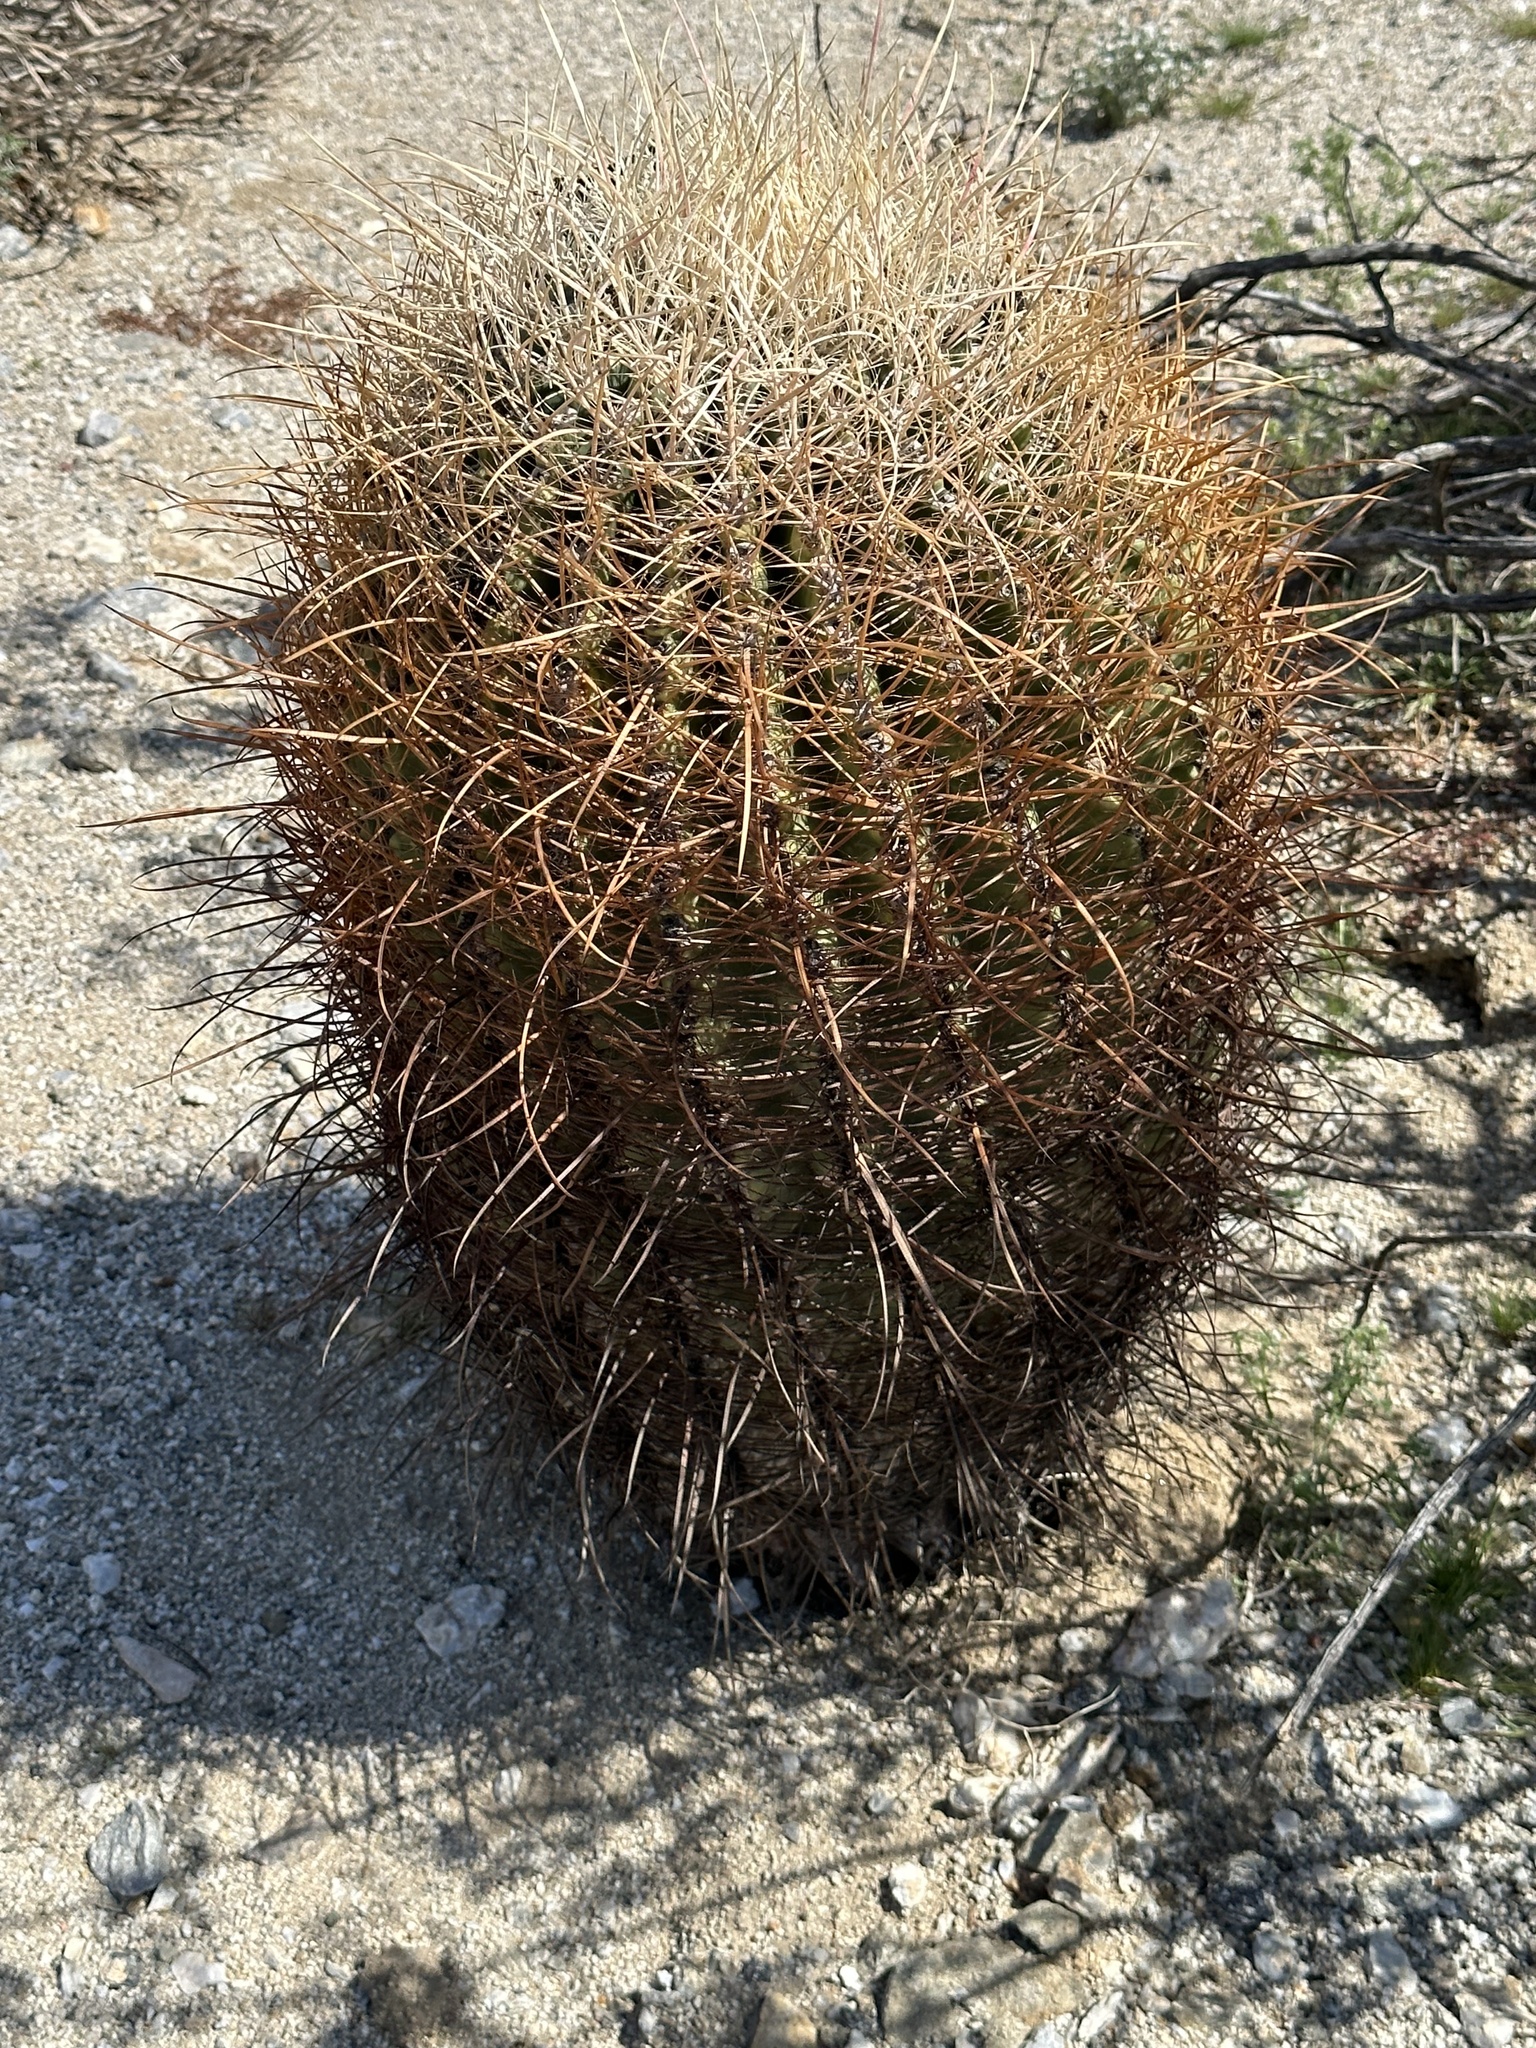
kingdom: Plantae
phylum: Tracheophyta
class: Magnoliopsida
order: Caryophyllales
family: Cactaceae
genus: Ferocactus
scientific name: Ferocactus cylindraceus
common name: California barrel cactus
